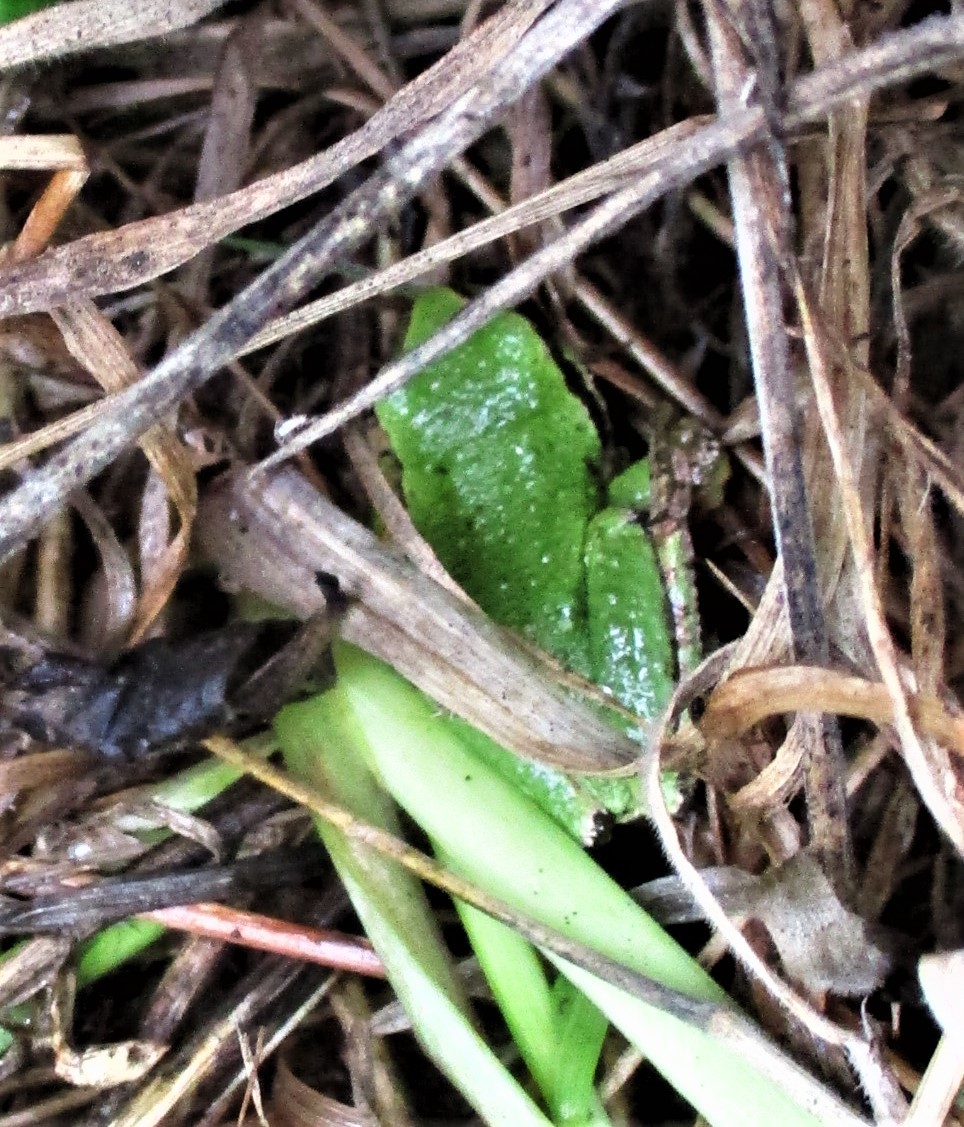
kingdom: Animalia
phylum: Chordata
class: Amphibia
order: Anura
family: Hylidae
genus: Pseudacris
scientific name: Pseudacris regilla
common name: Pacific chorus frog
